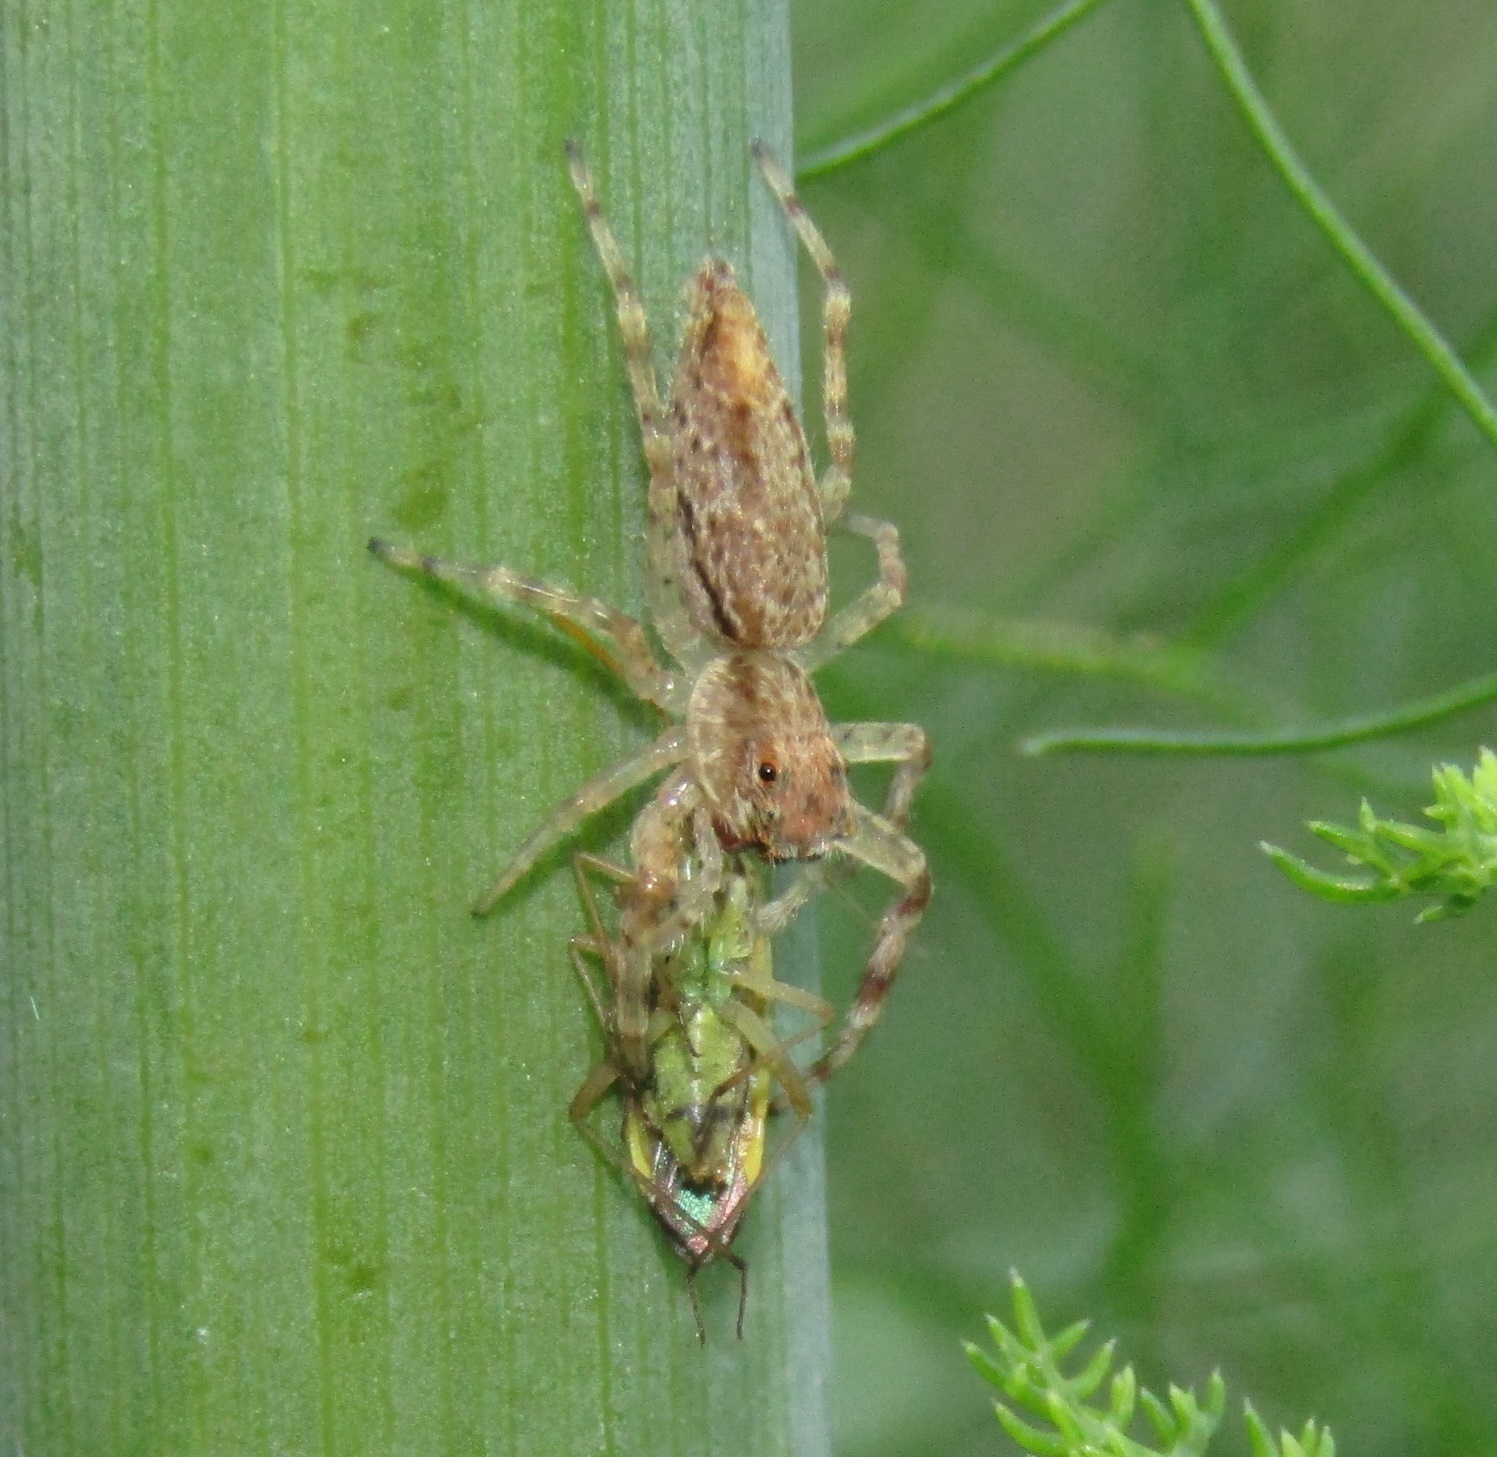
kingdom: Animalia
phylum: Arthropoda
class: Arachnida
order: Araneae
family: Salticidae
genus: Helpis
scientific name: Helpis minitabunda
